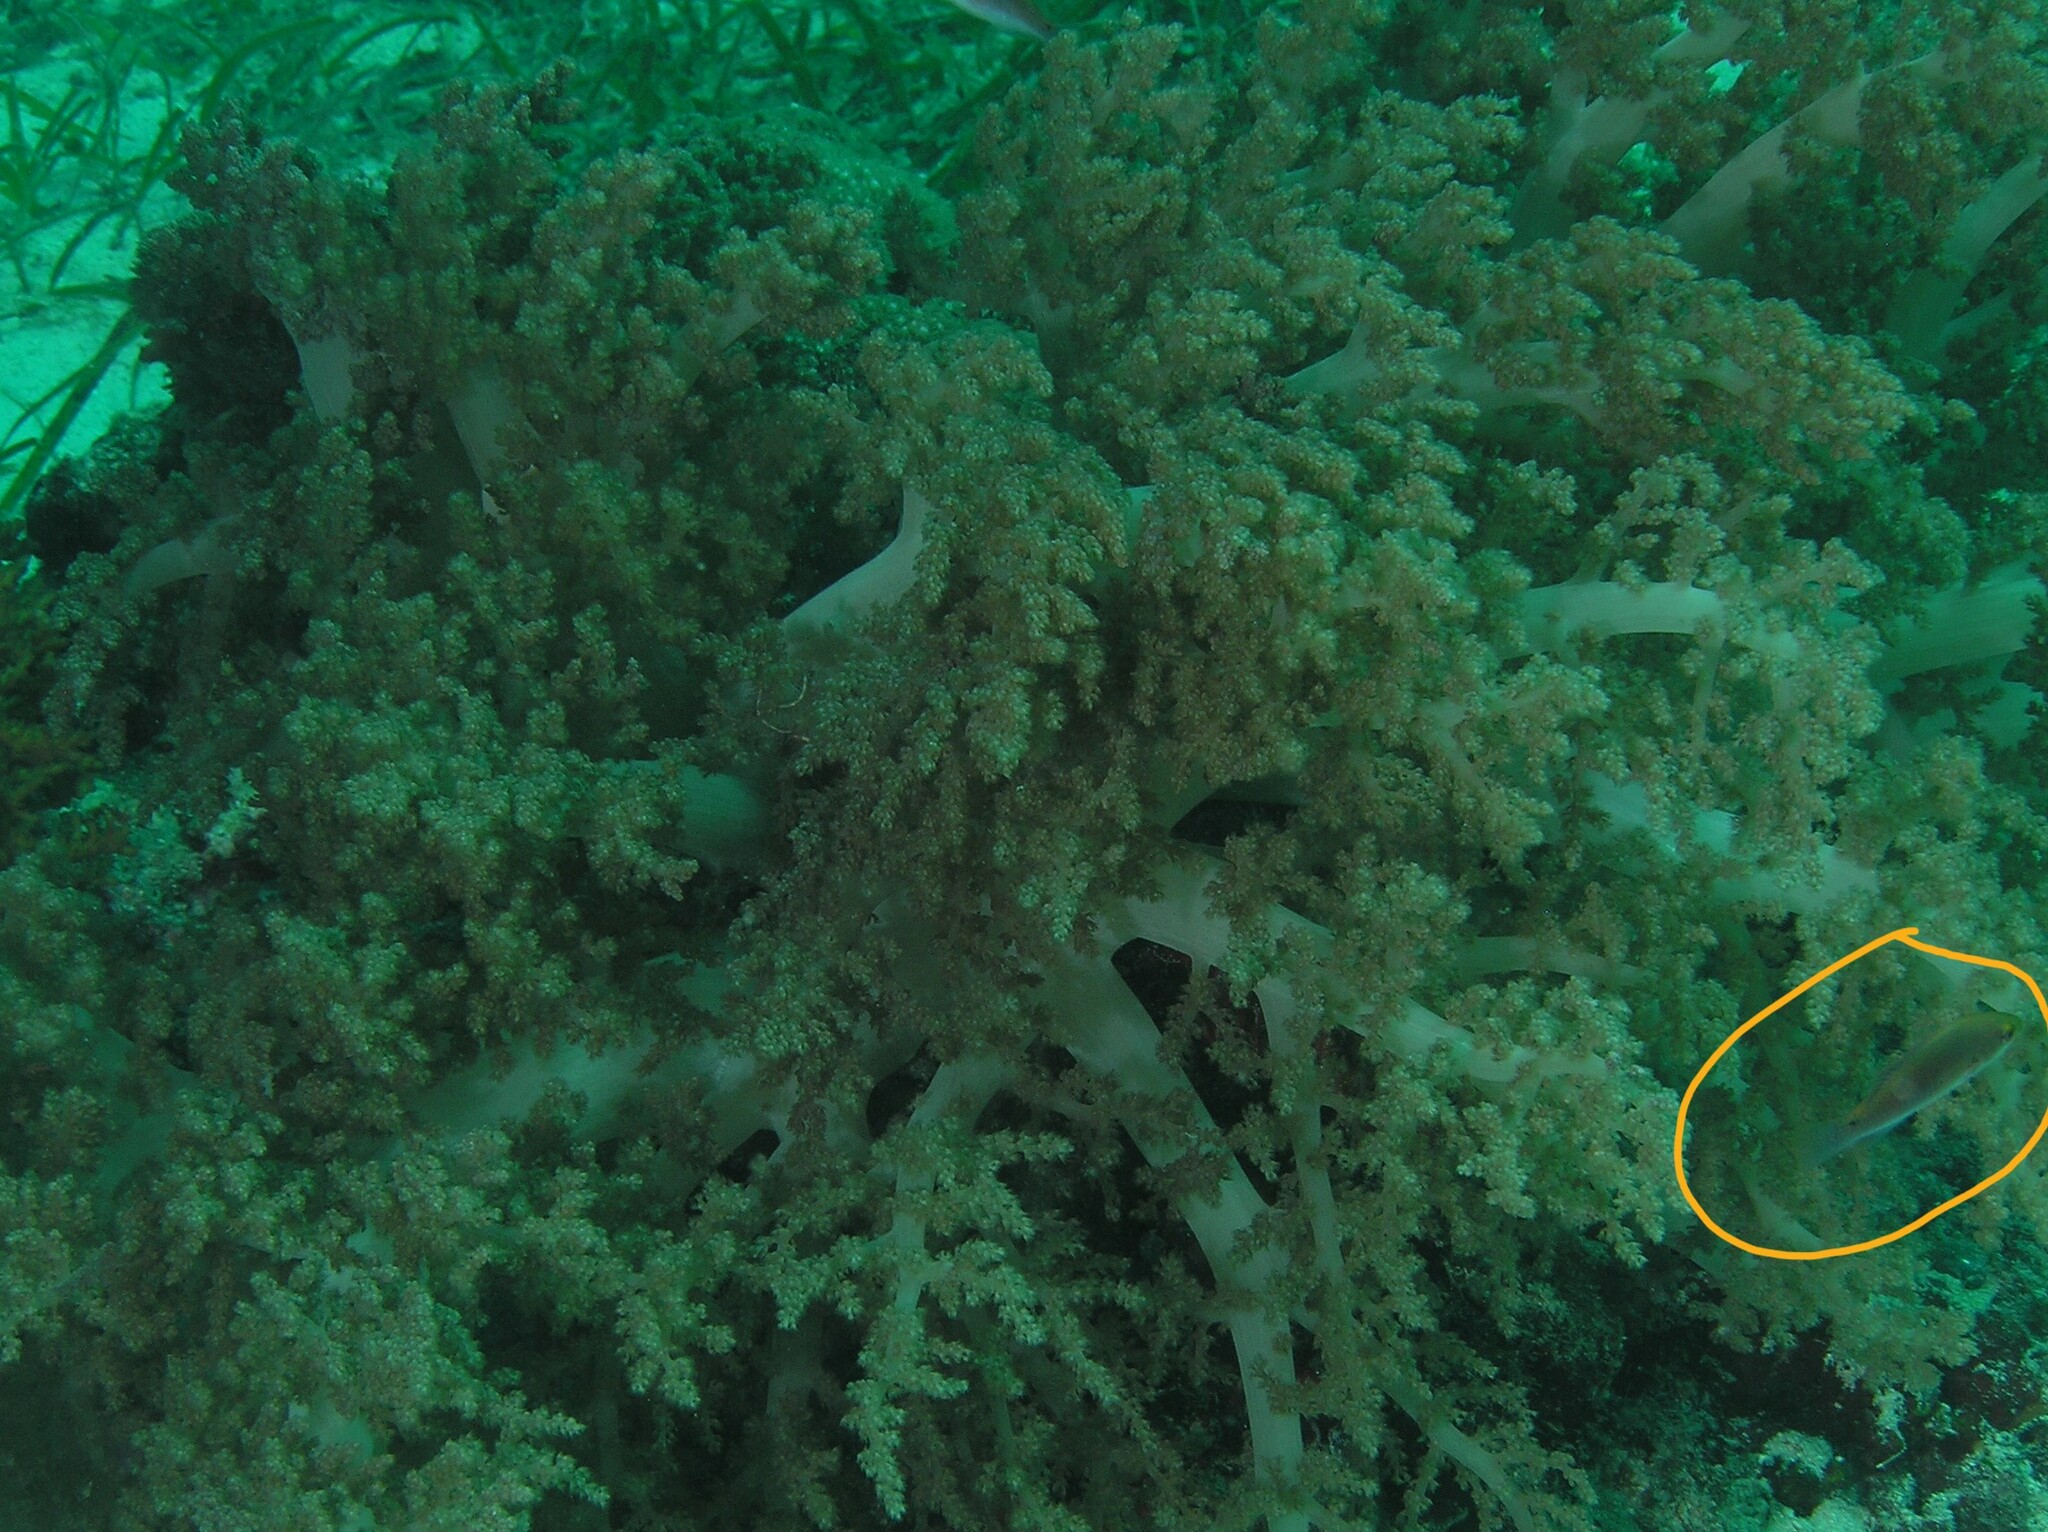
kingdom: Animalia
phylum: Chordata
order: Perciformes
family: Labridae
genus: Cirrhilabrus
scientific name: Cirrhilabrus cyanopleura
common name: Coralline wrasse
